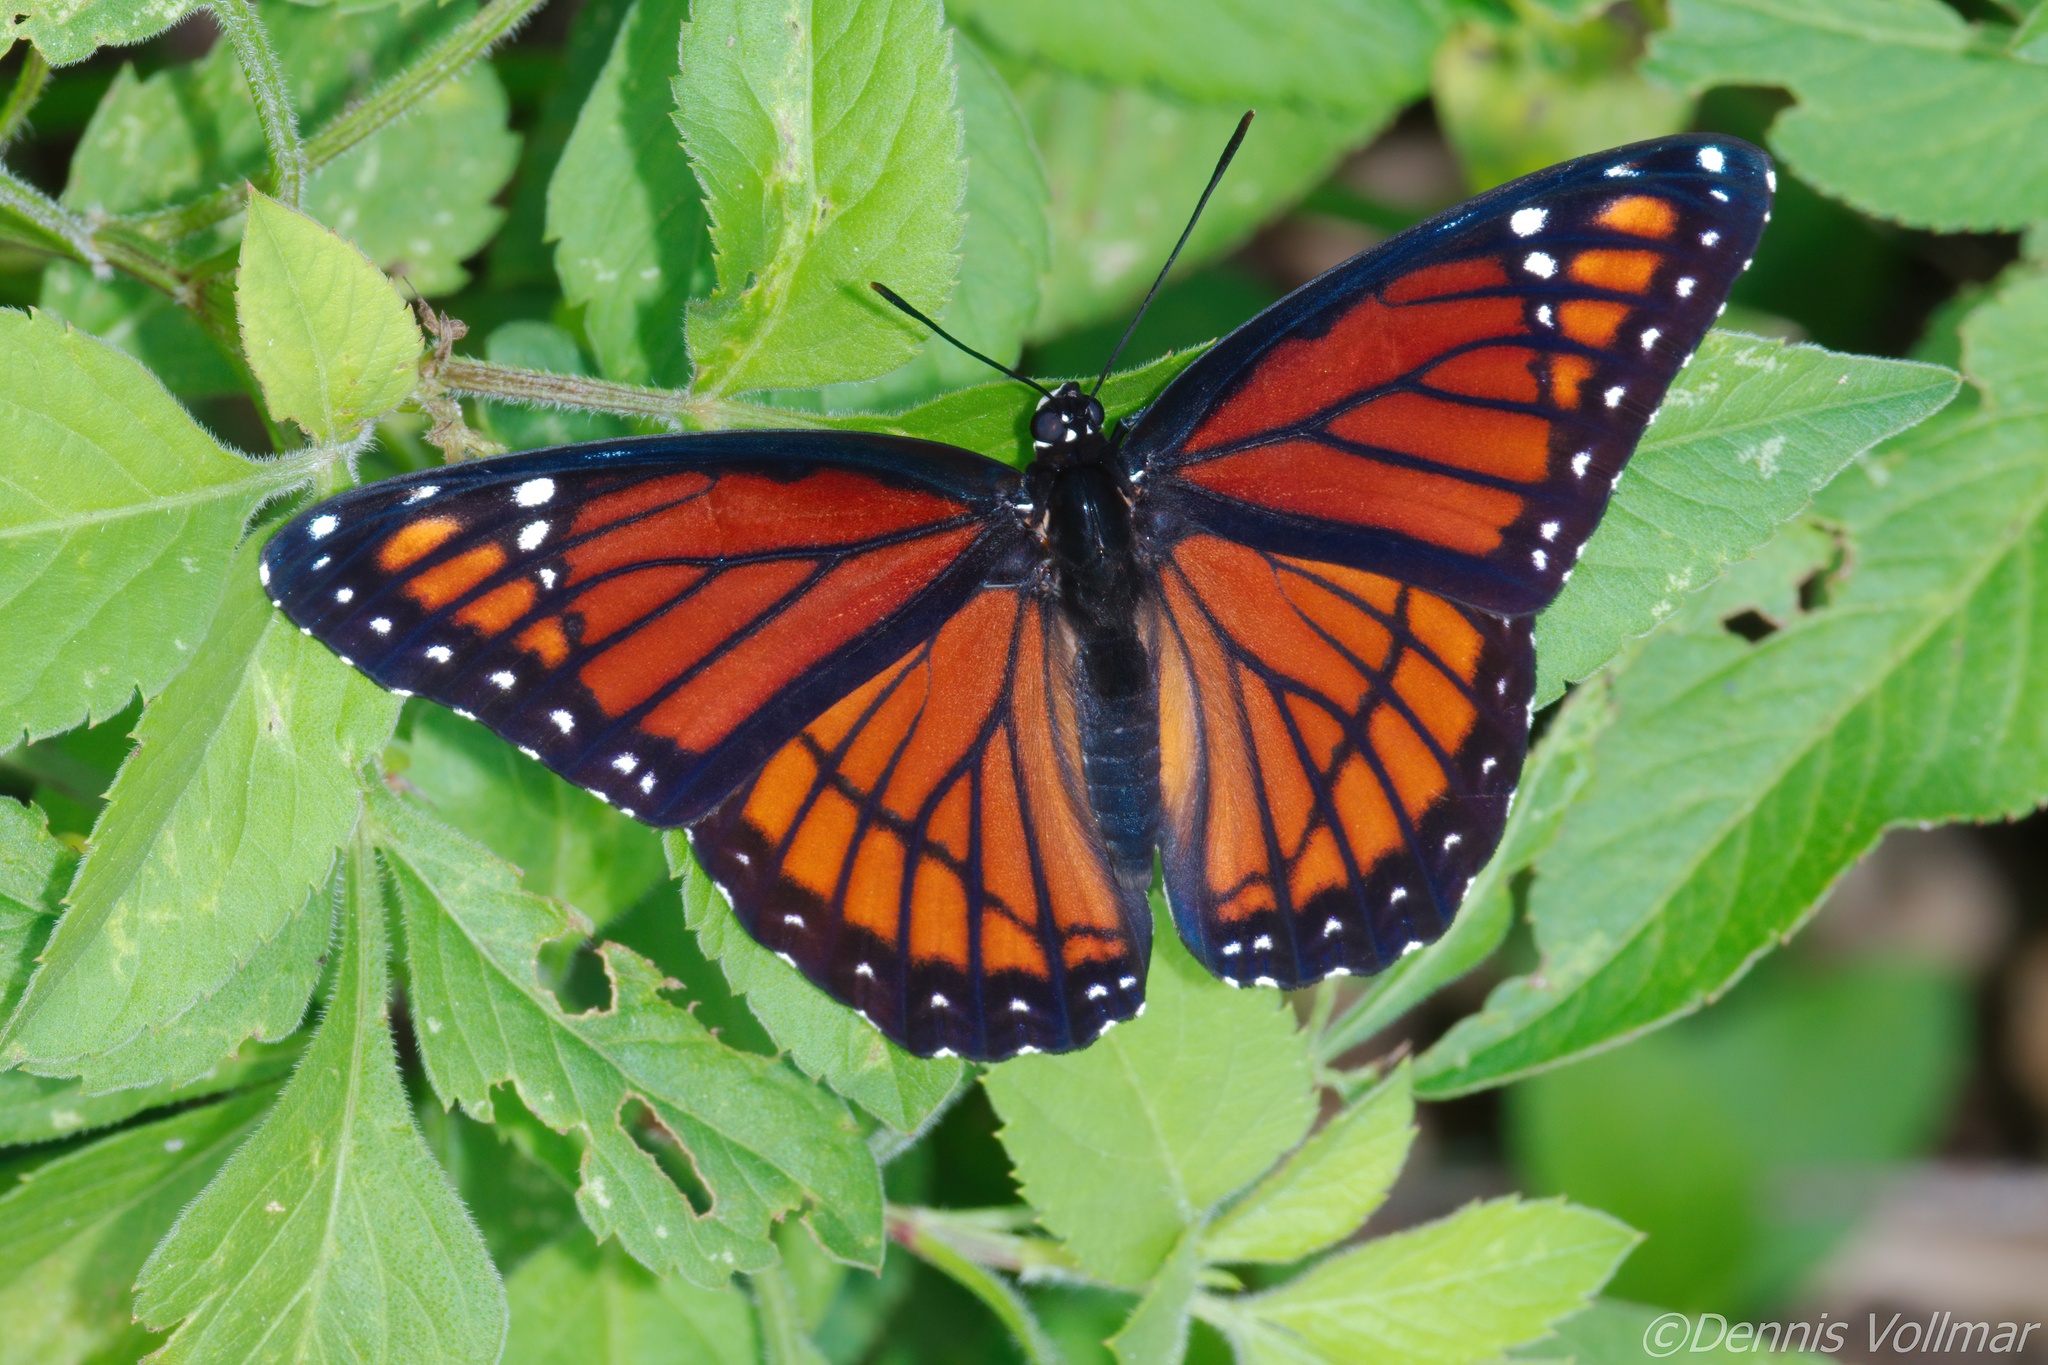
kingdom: Animalia
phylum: Arthropoda
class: Insecta
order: Lepidoptera
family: Nymphalidae
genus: Limenitis
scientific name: Limenitis archippus
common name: Viceroy
